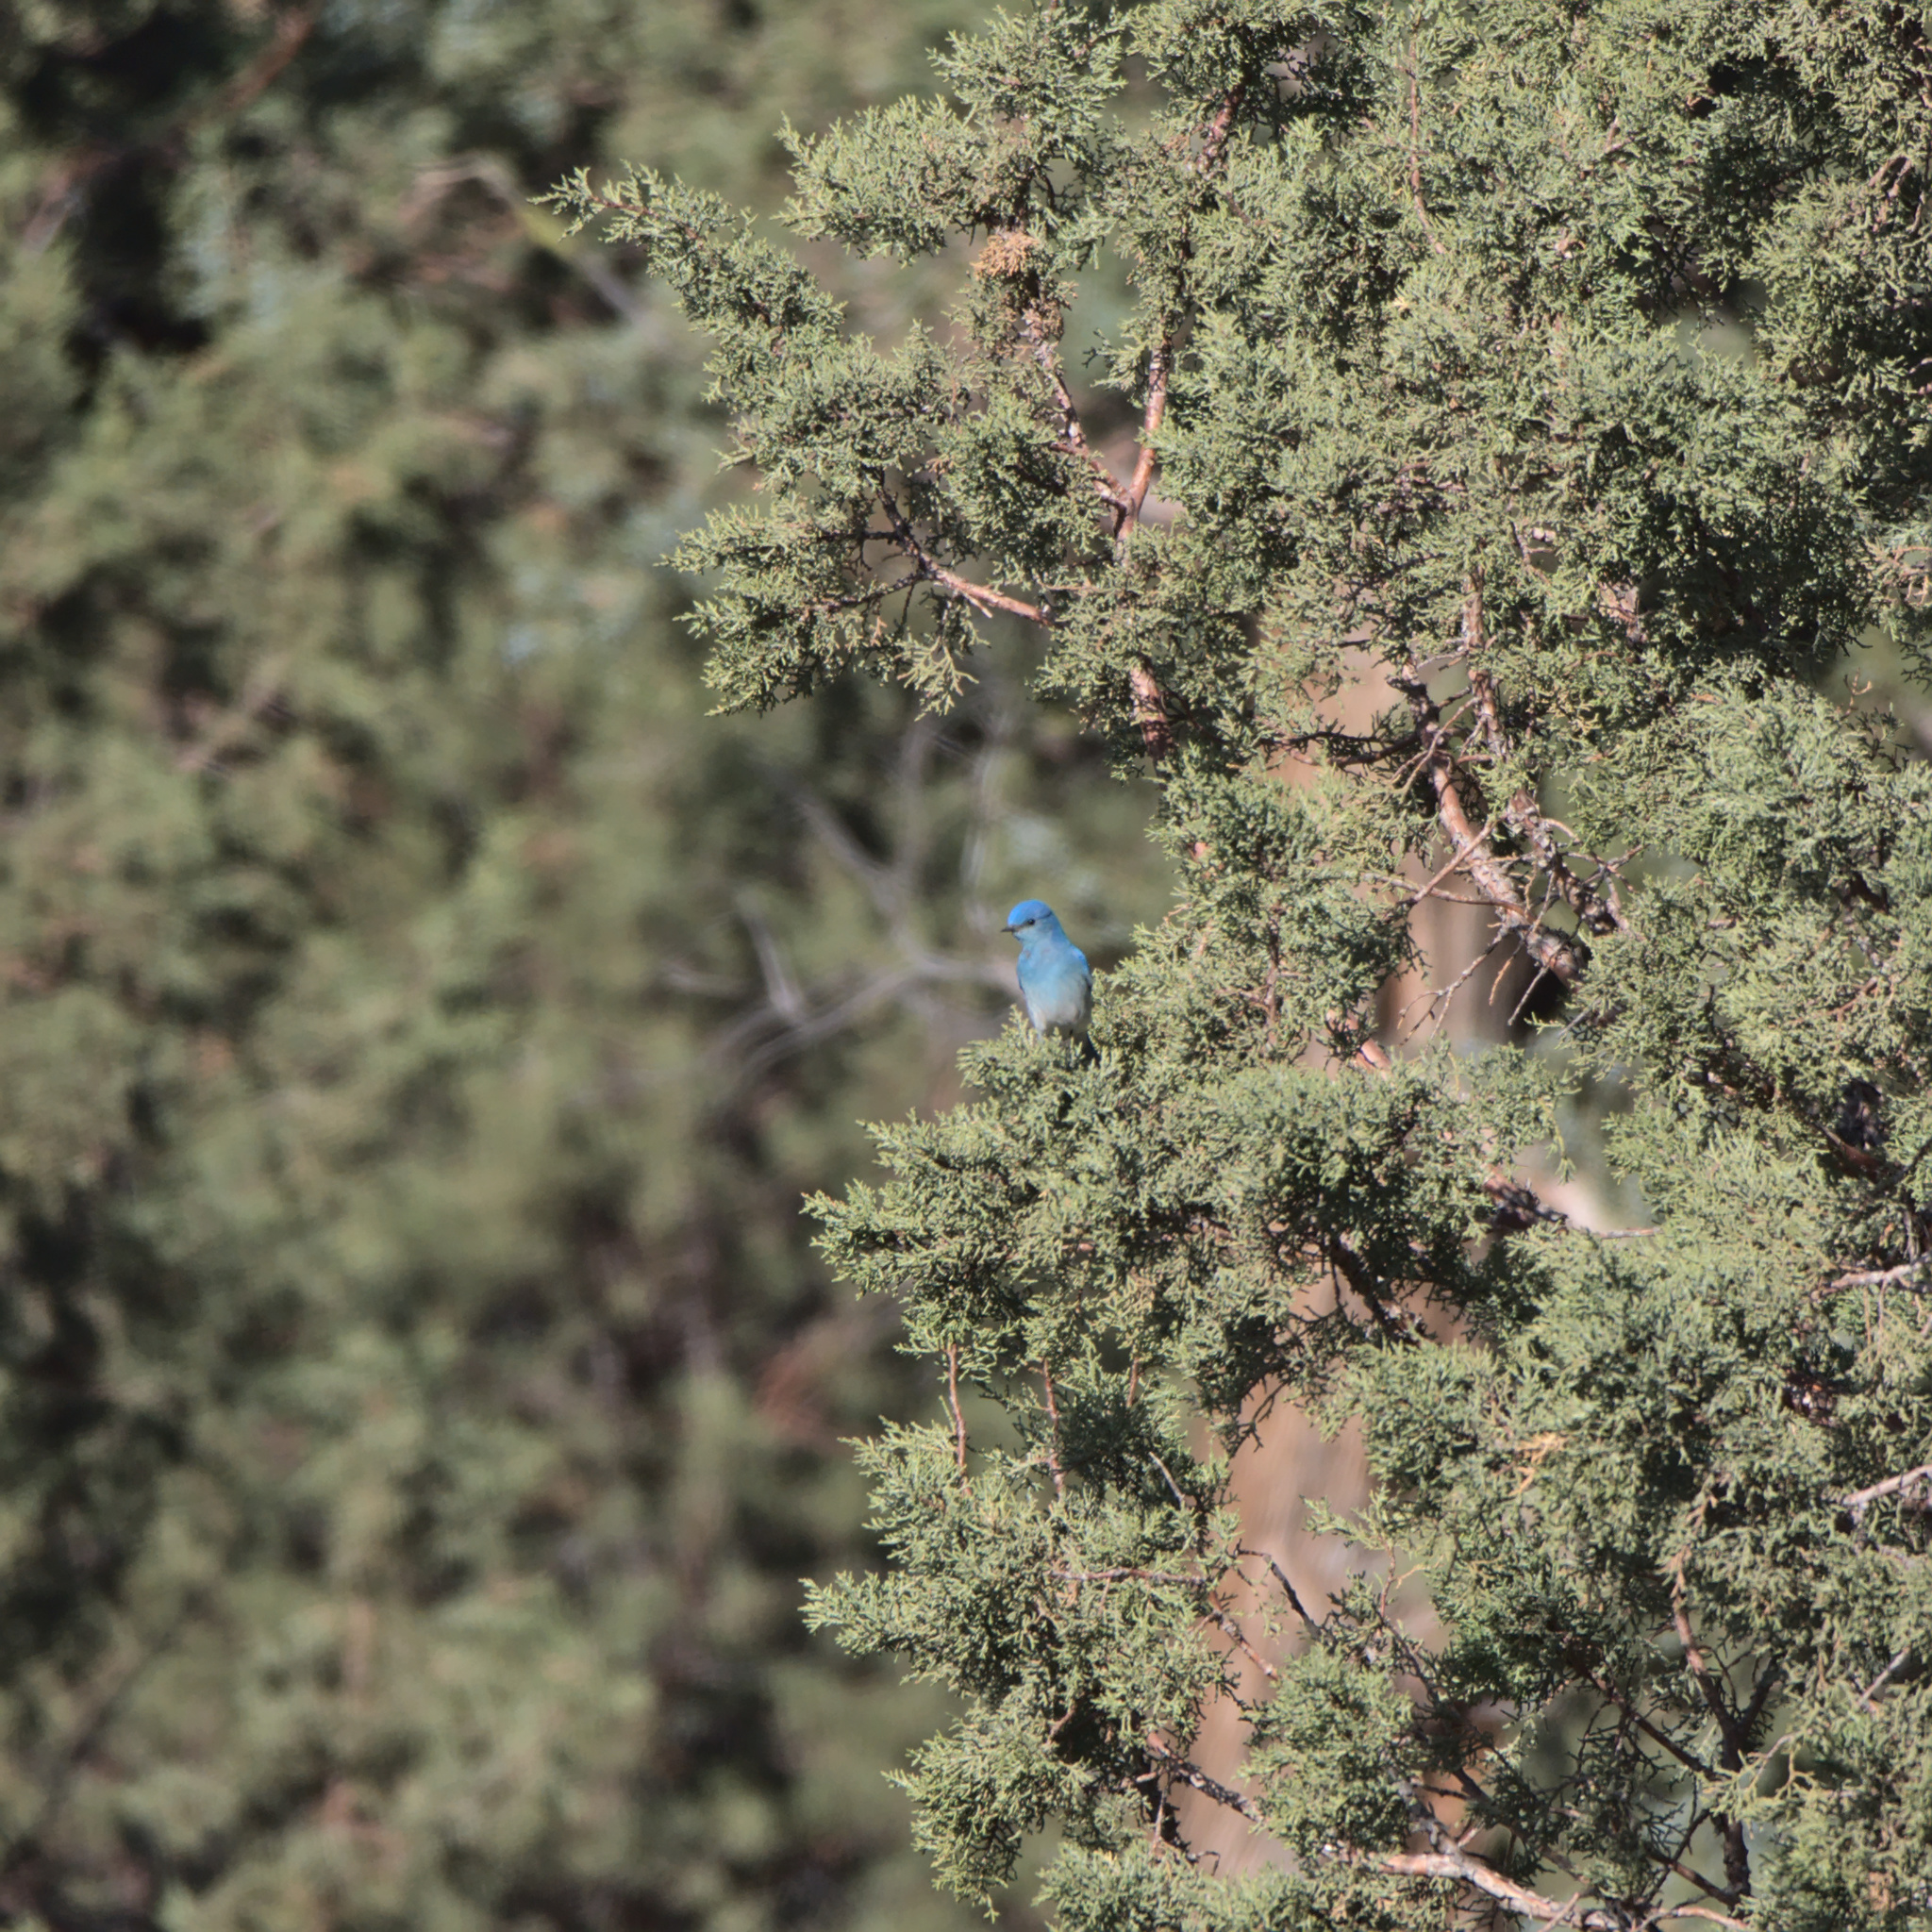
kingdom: Animalia
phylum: Chordata
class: Aves
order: Passeriformes
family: Turdidae
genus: Sialia
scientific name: Sialia currucoides
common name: Mountain bluebird
